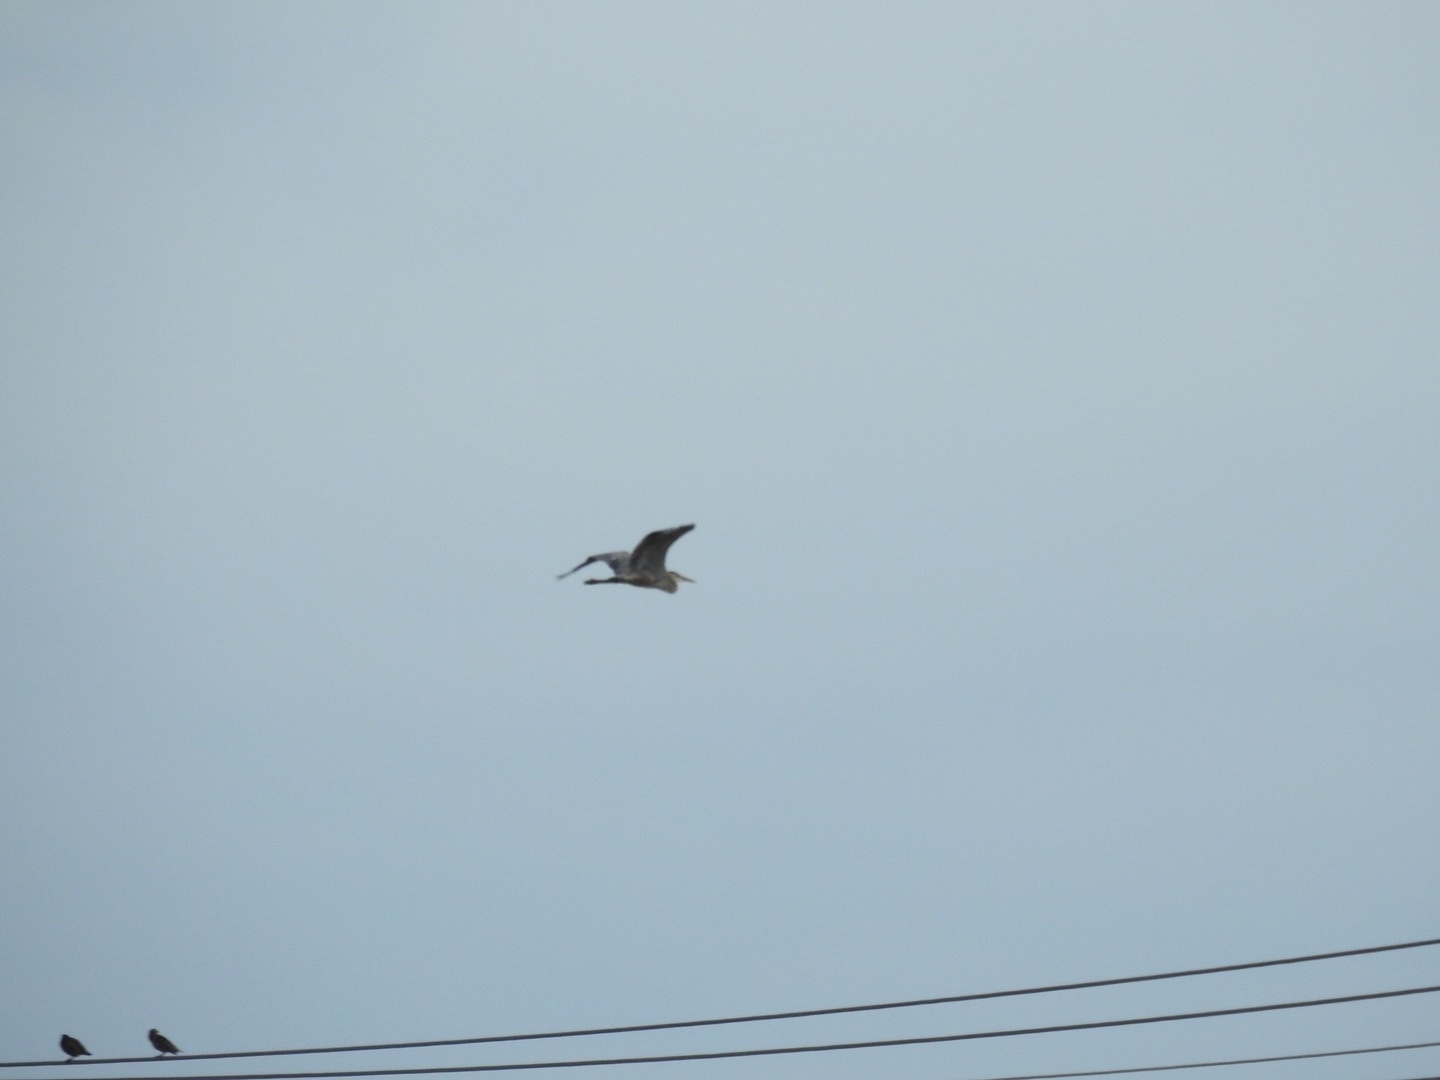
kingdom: Animalia
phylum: Chordata
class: Aves
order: Pelecaniformes
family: Ardeidae
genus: Ardea
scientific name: Ardea herodias
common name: Great blue heron
